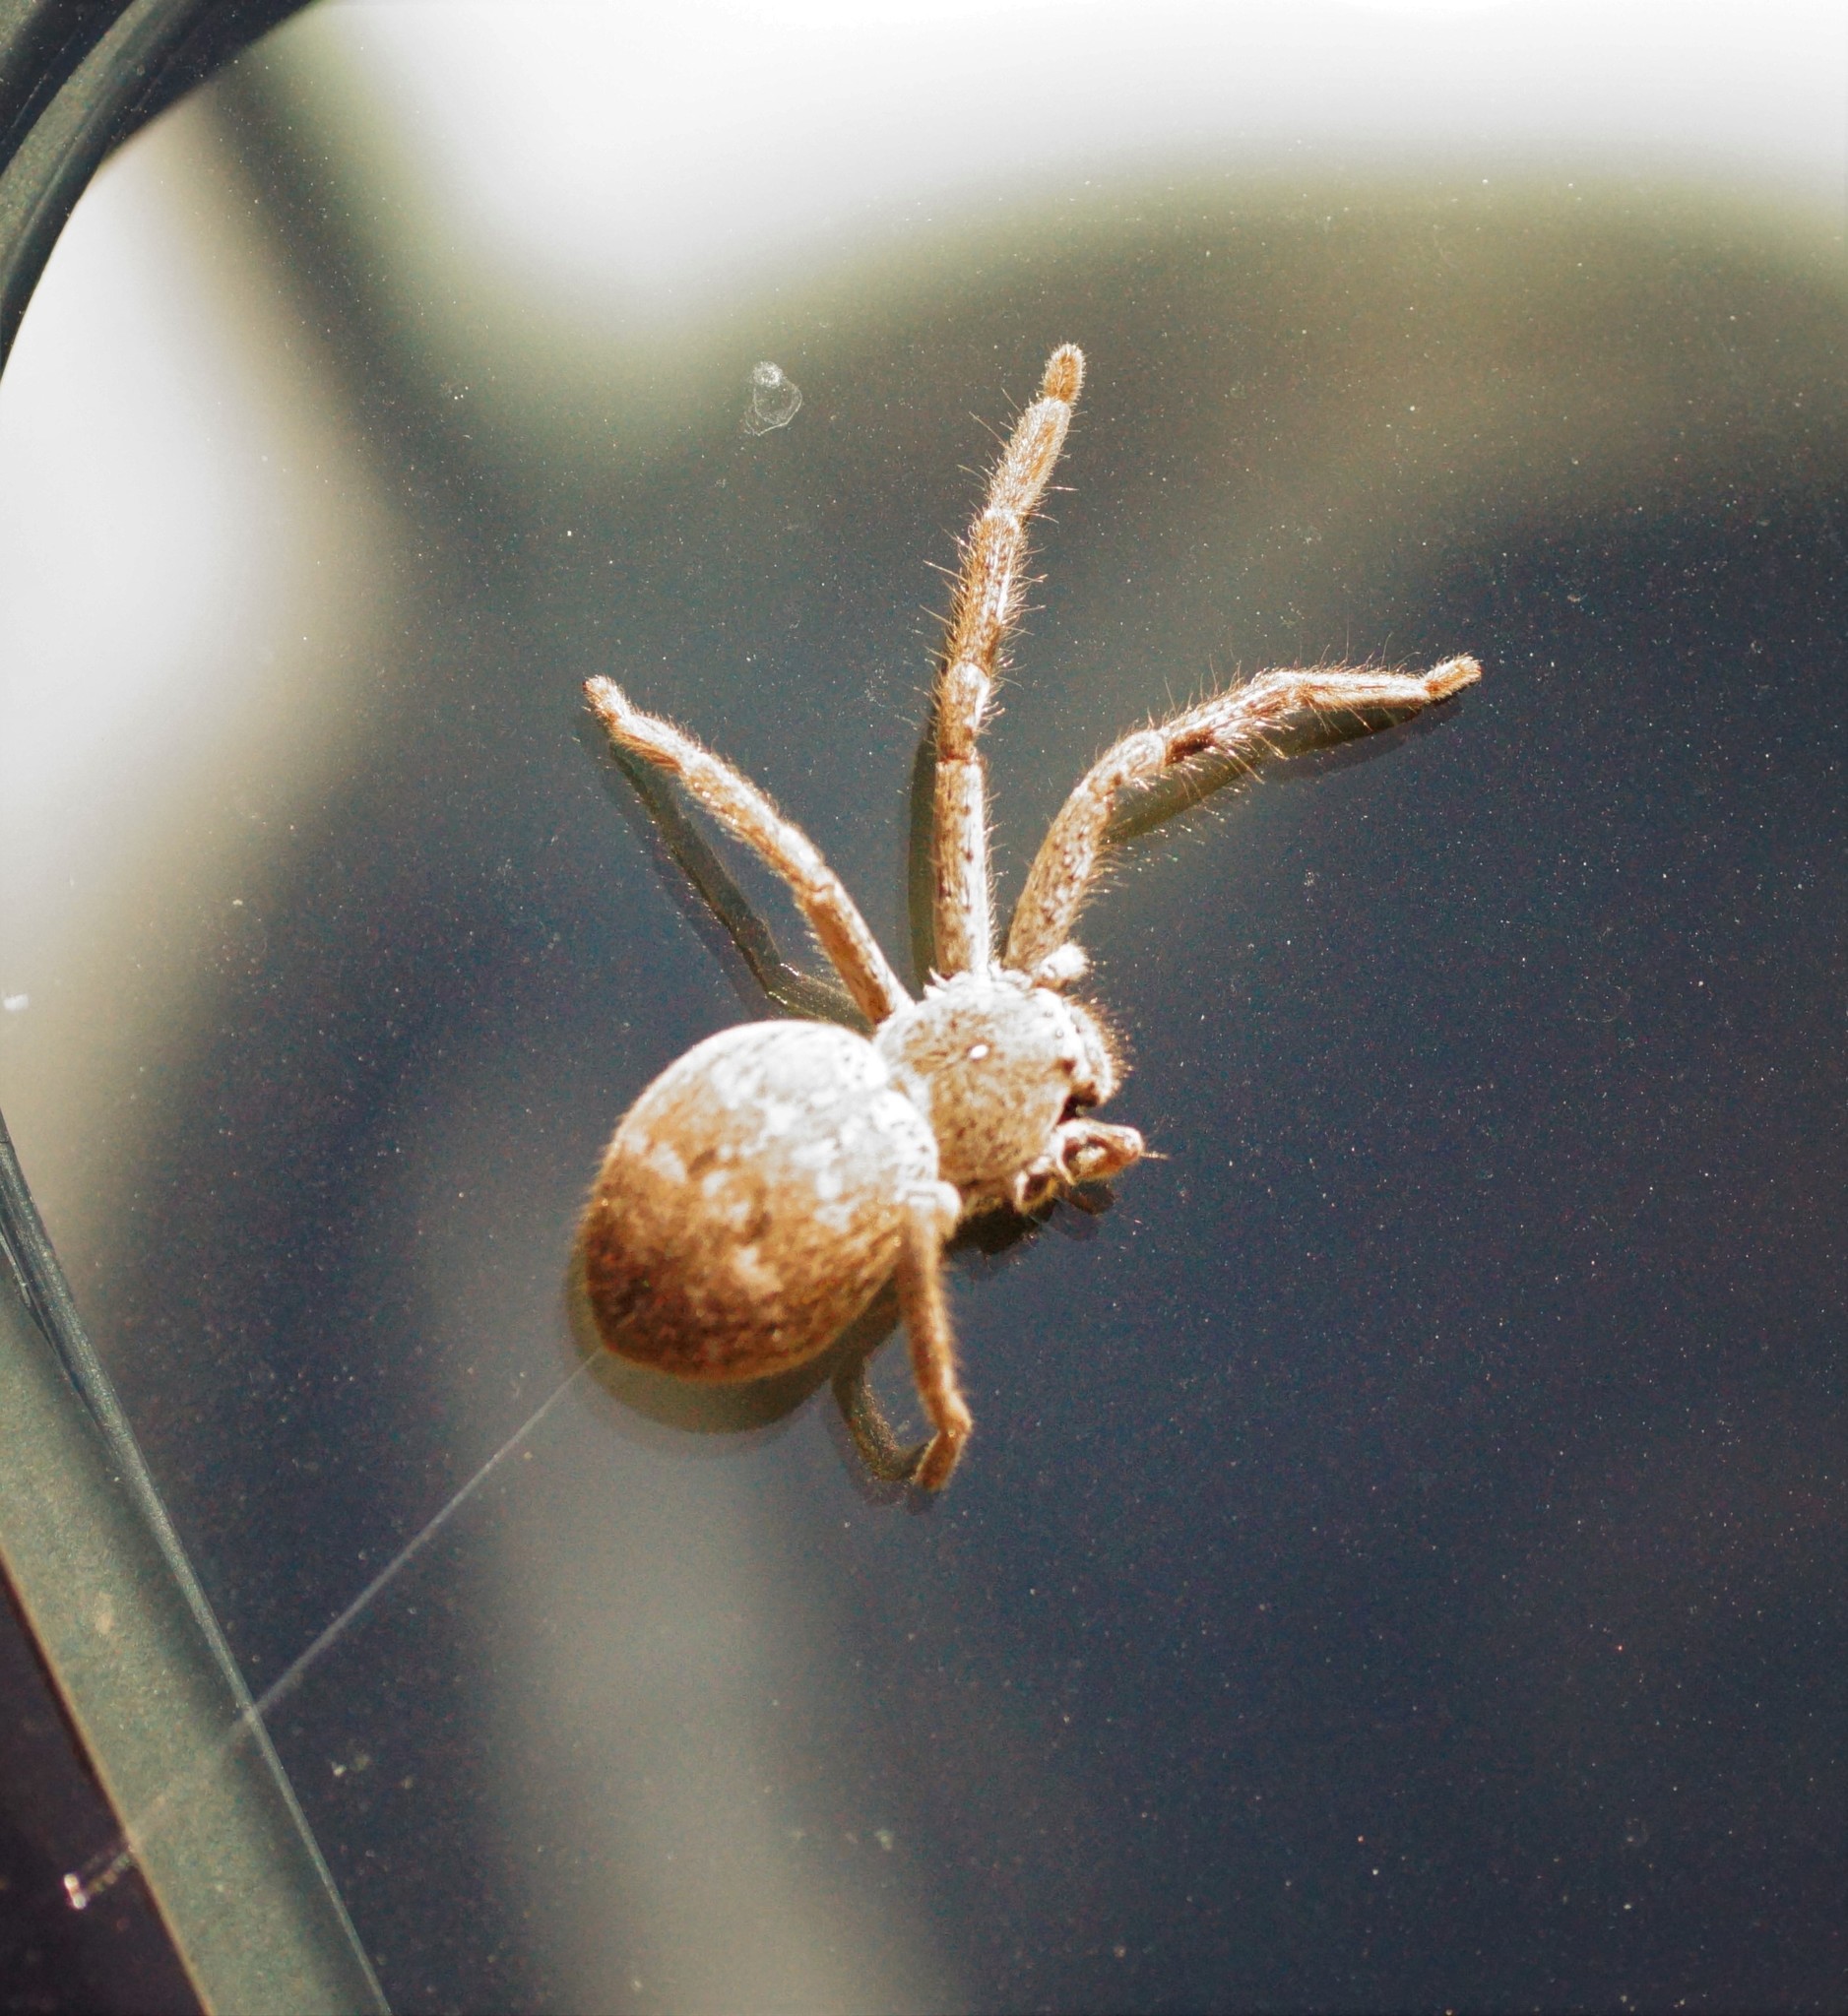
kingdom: Animalia
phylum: Arthropoda
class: Arachnida
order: Araneae
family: Sparassidae
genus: Isopedella
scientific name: Isopedella victorialis
